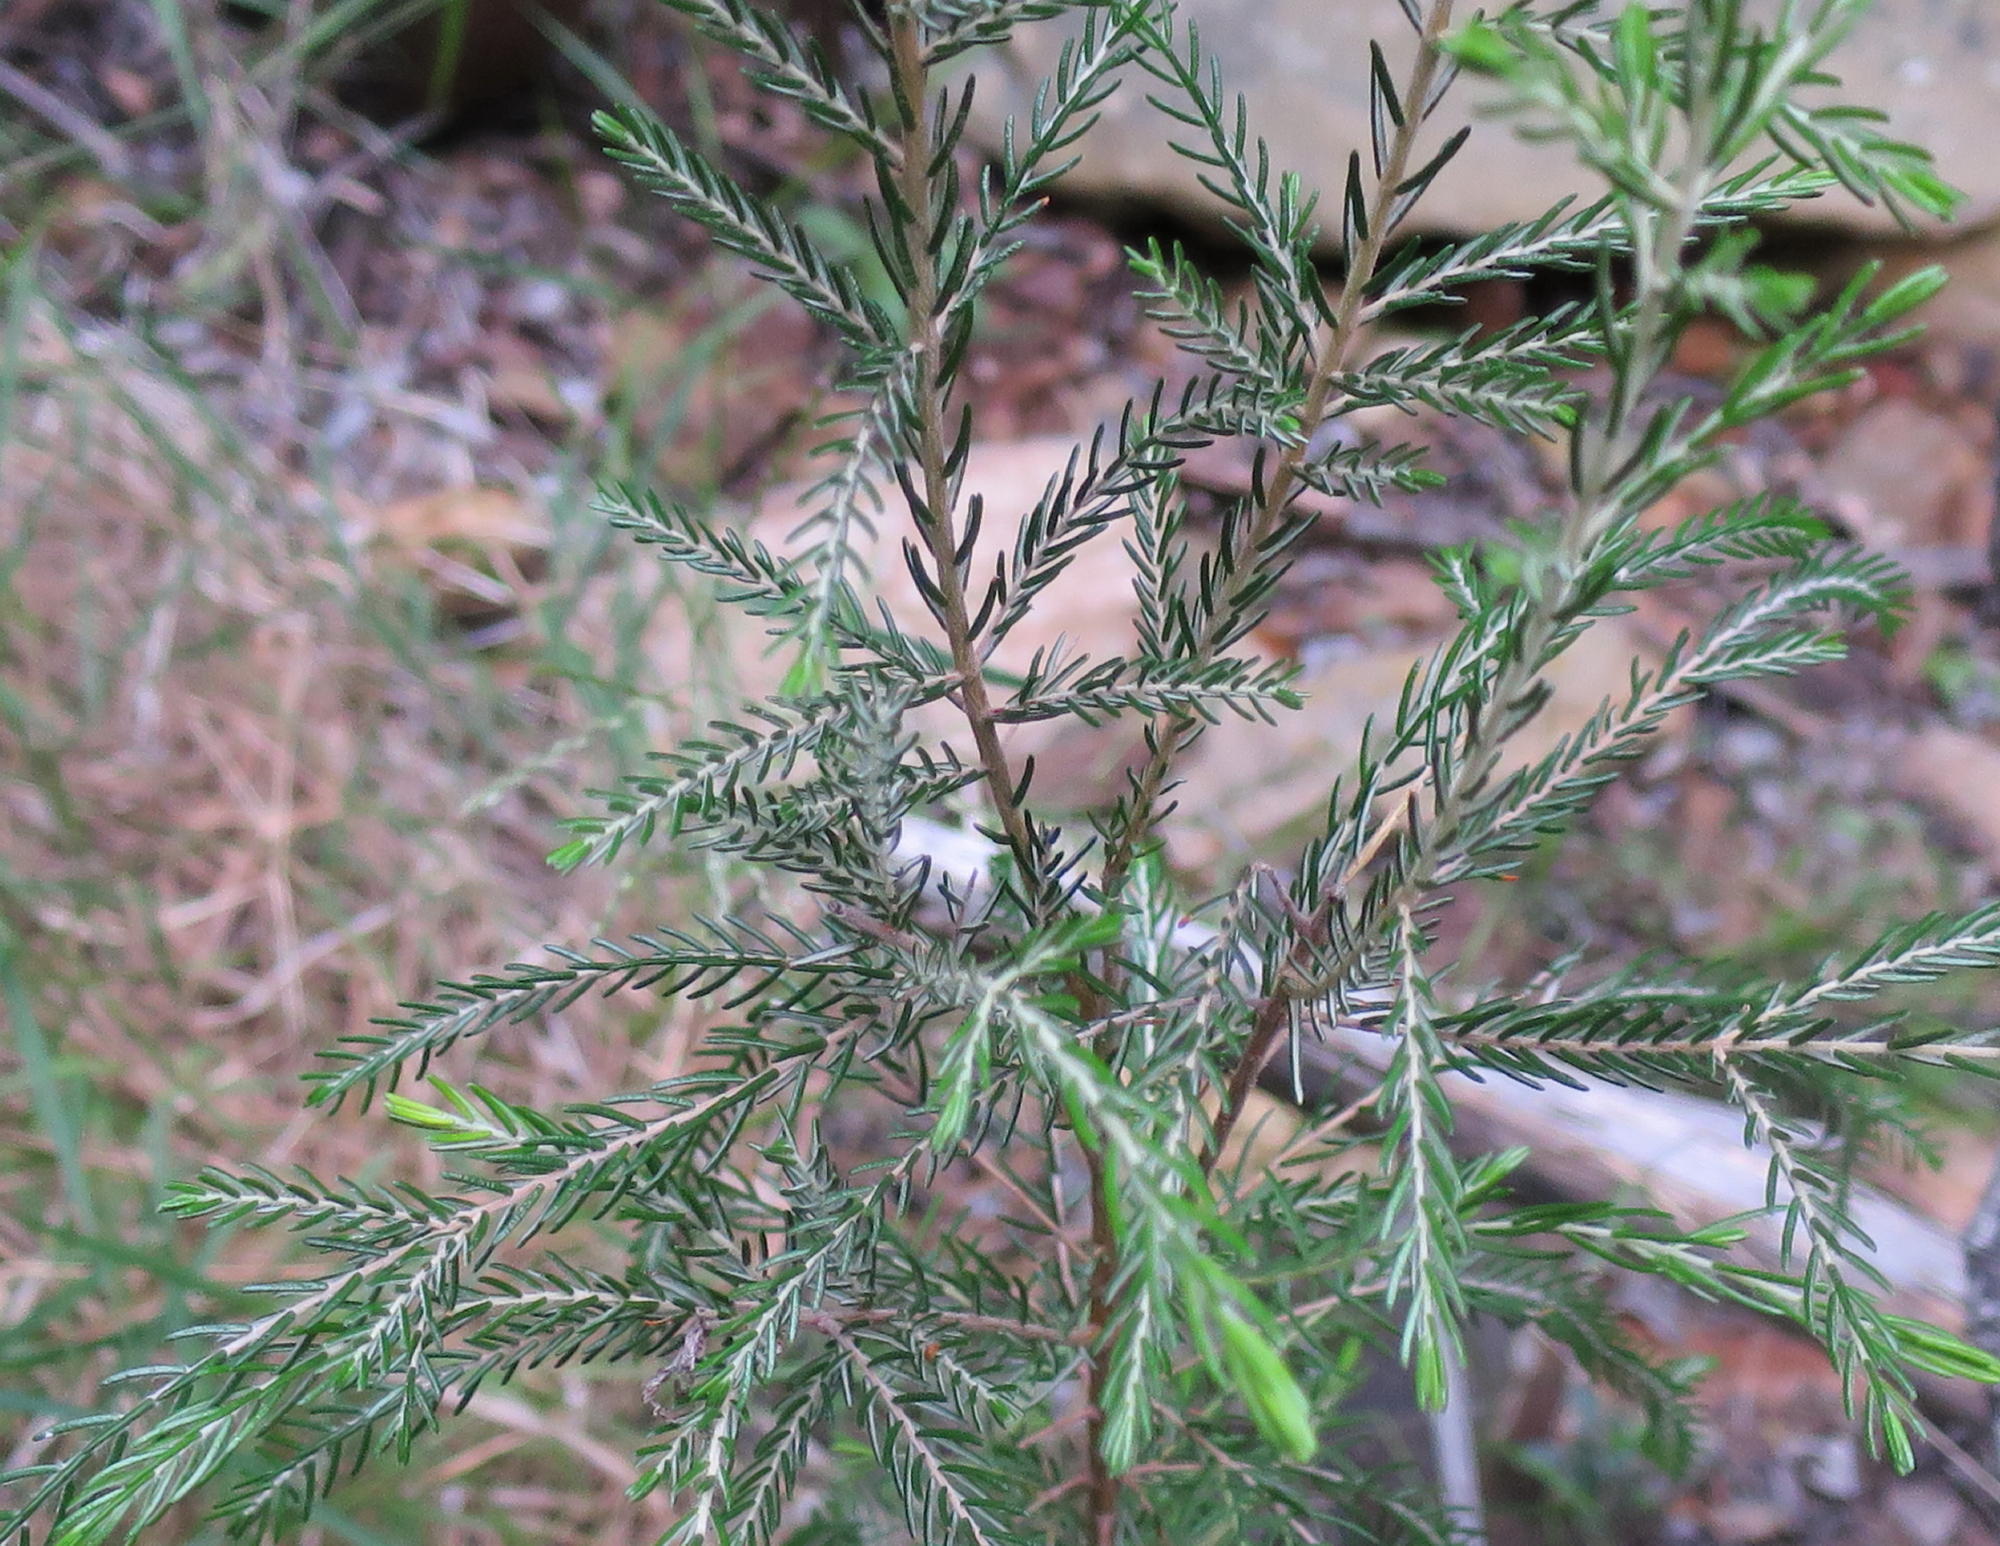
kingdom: Plantae
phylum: Tracheophyta
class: Magnoliopsida
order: Malvales
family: Thymelaeaceae
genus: Passerina
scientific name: Passerina obtusifolia
